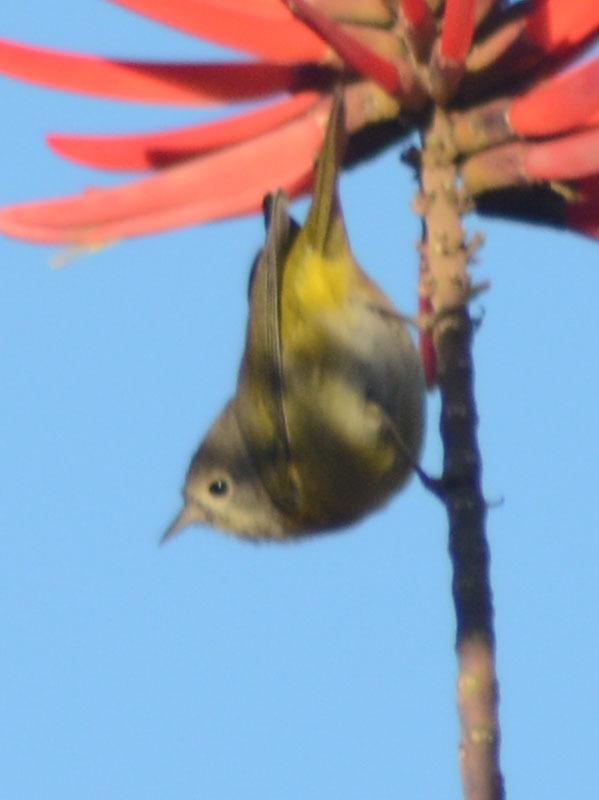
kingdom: Animalia
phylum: Chordata
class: Aves
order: Passeriformes
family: Parulidae
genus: Leiothlypis
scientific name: Leiothlypis ruficapilla
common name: Nashville warbler
